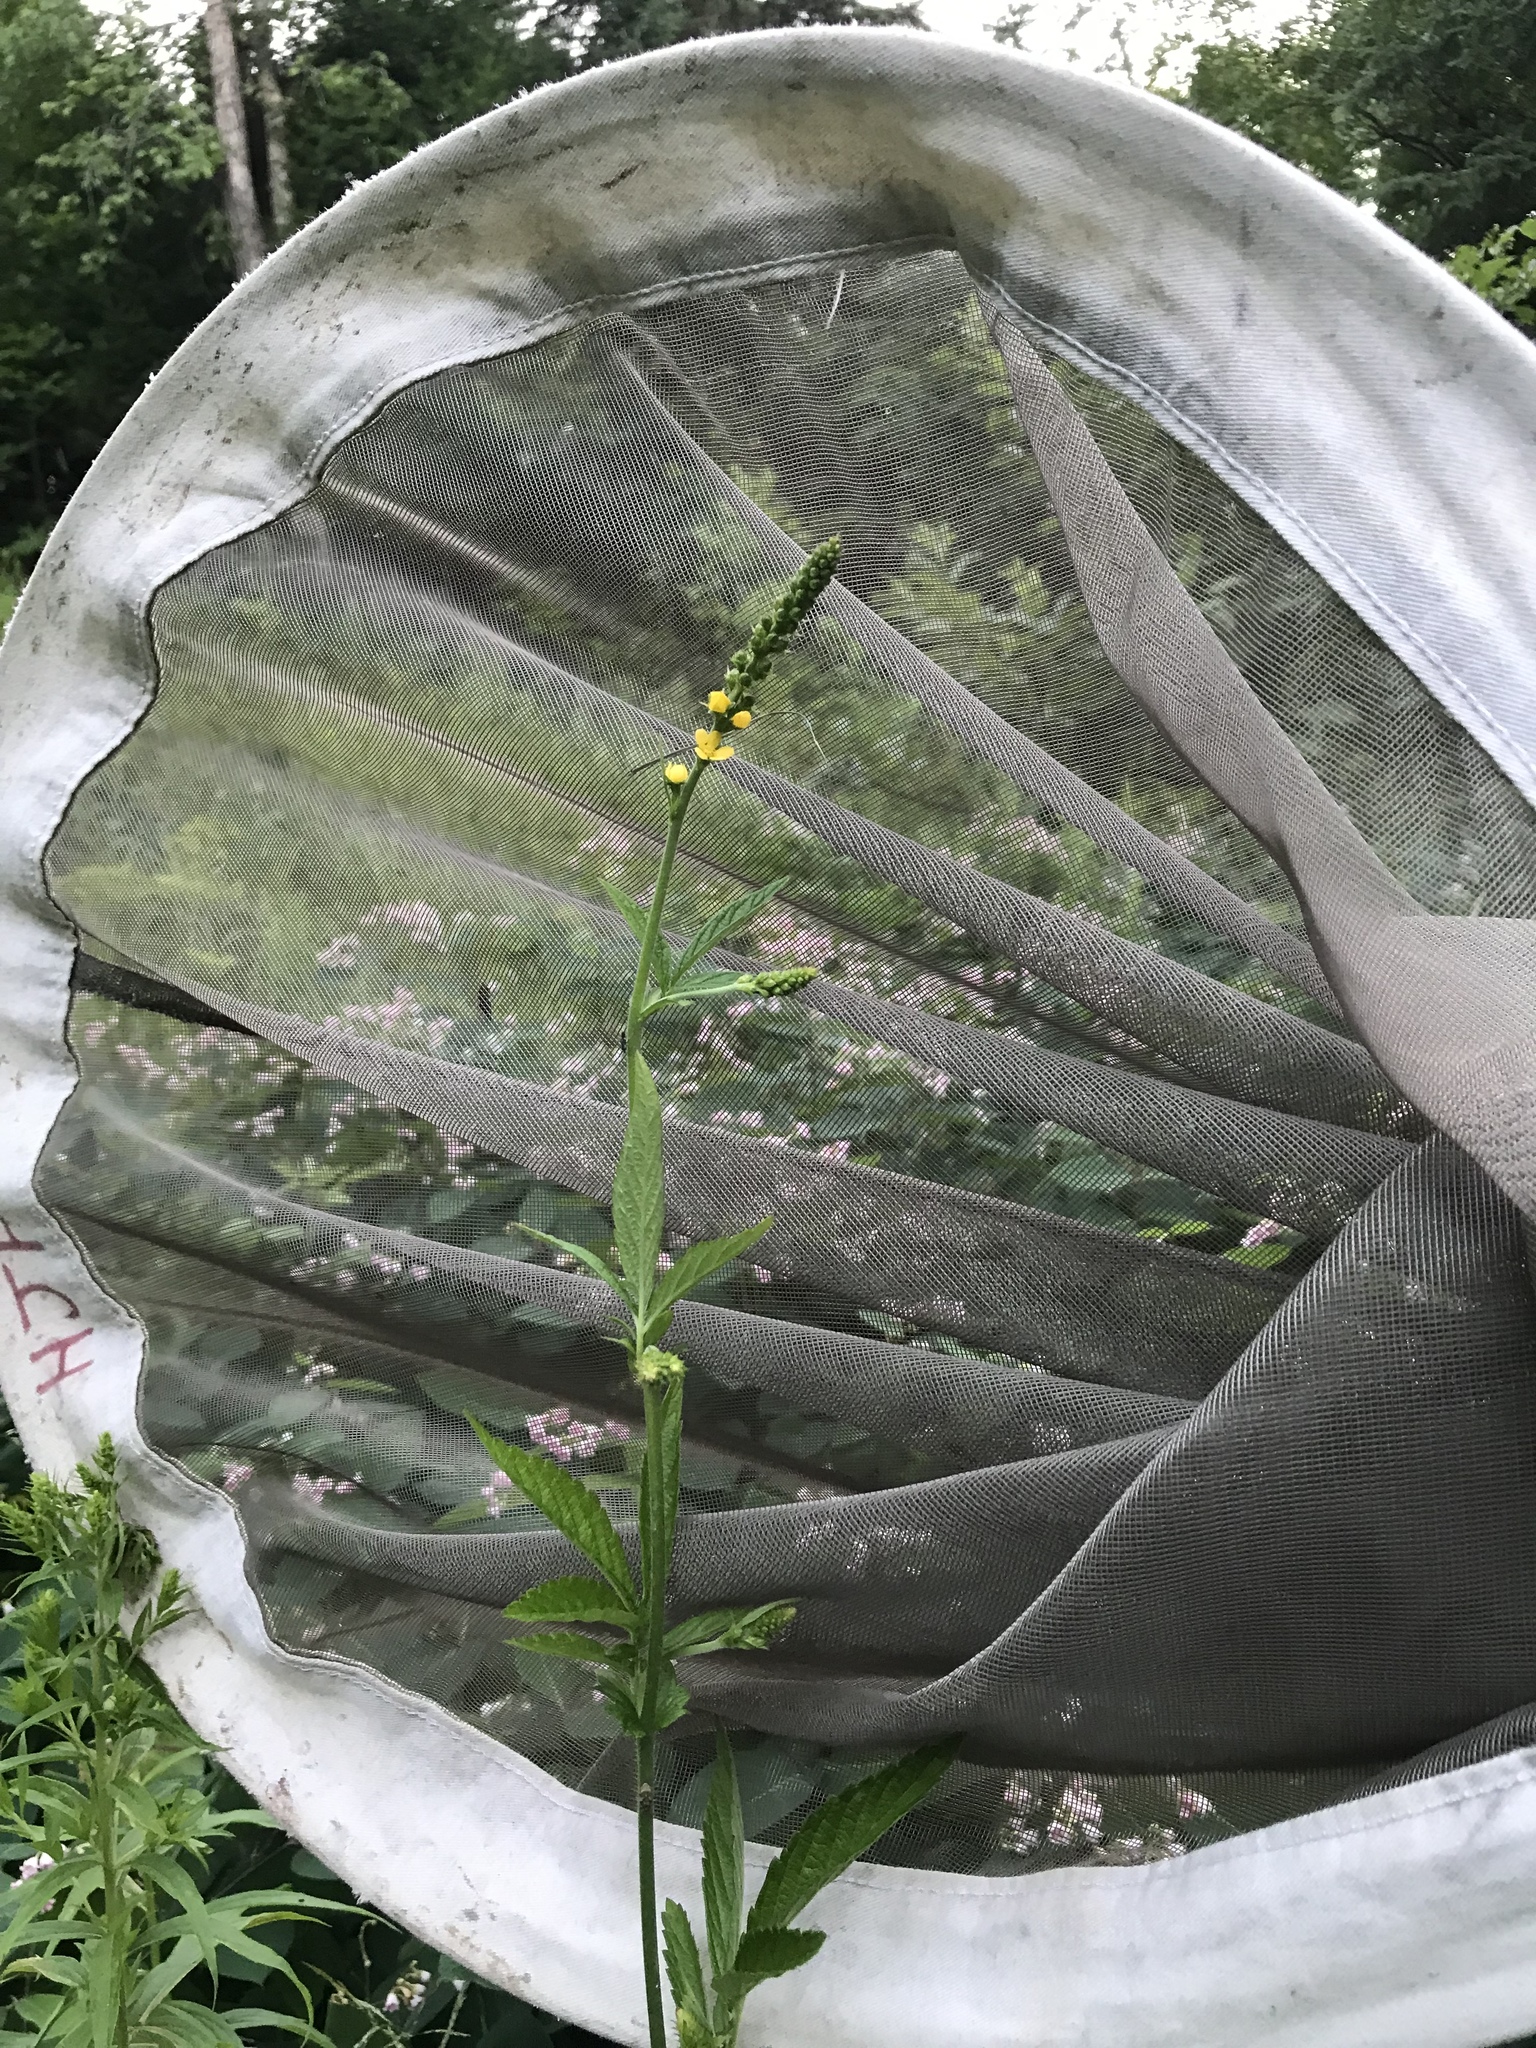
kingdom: Plantae
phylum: Tracheophyta
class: Magnoliopsida
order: Rosales
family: Rosaceae
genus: Agrimonia
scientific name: Agrimonia striata
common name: Britton's agrimony
